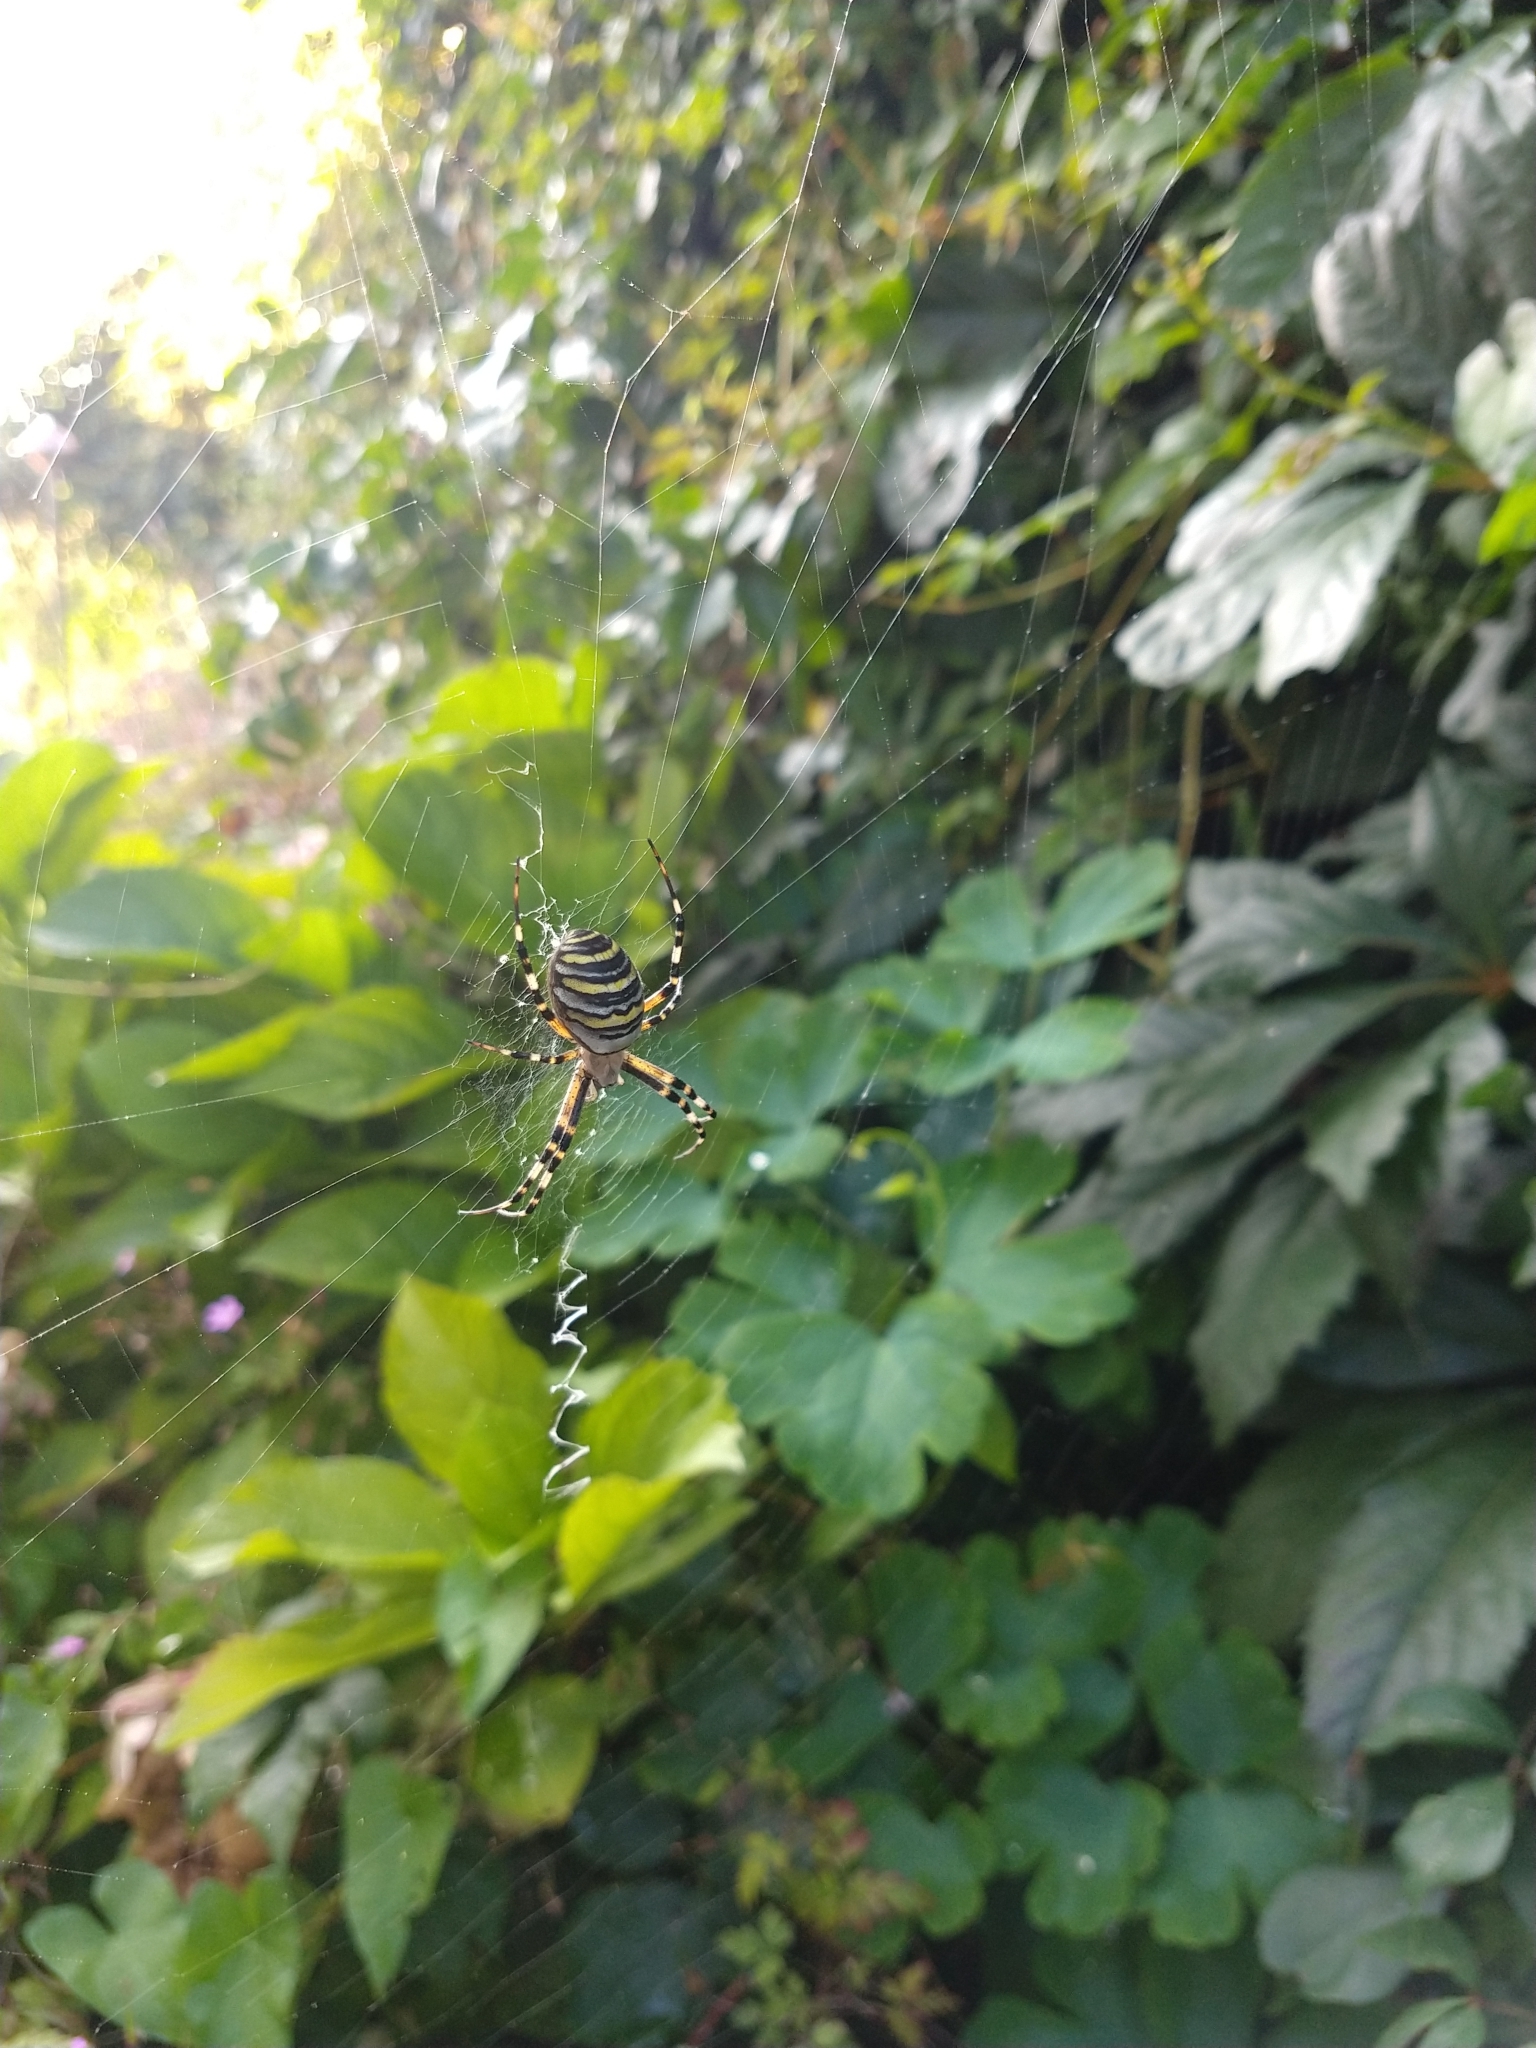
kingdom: Animalia
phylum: Arthropoda
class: Arachnida
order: Araneae
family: Araneidae
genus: Argiope
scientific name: Argiope bruennichi
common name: Wasp spider
